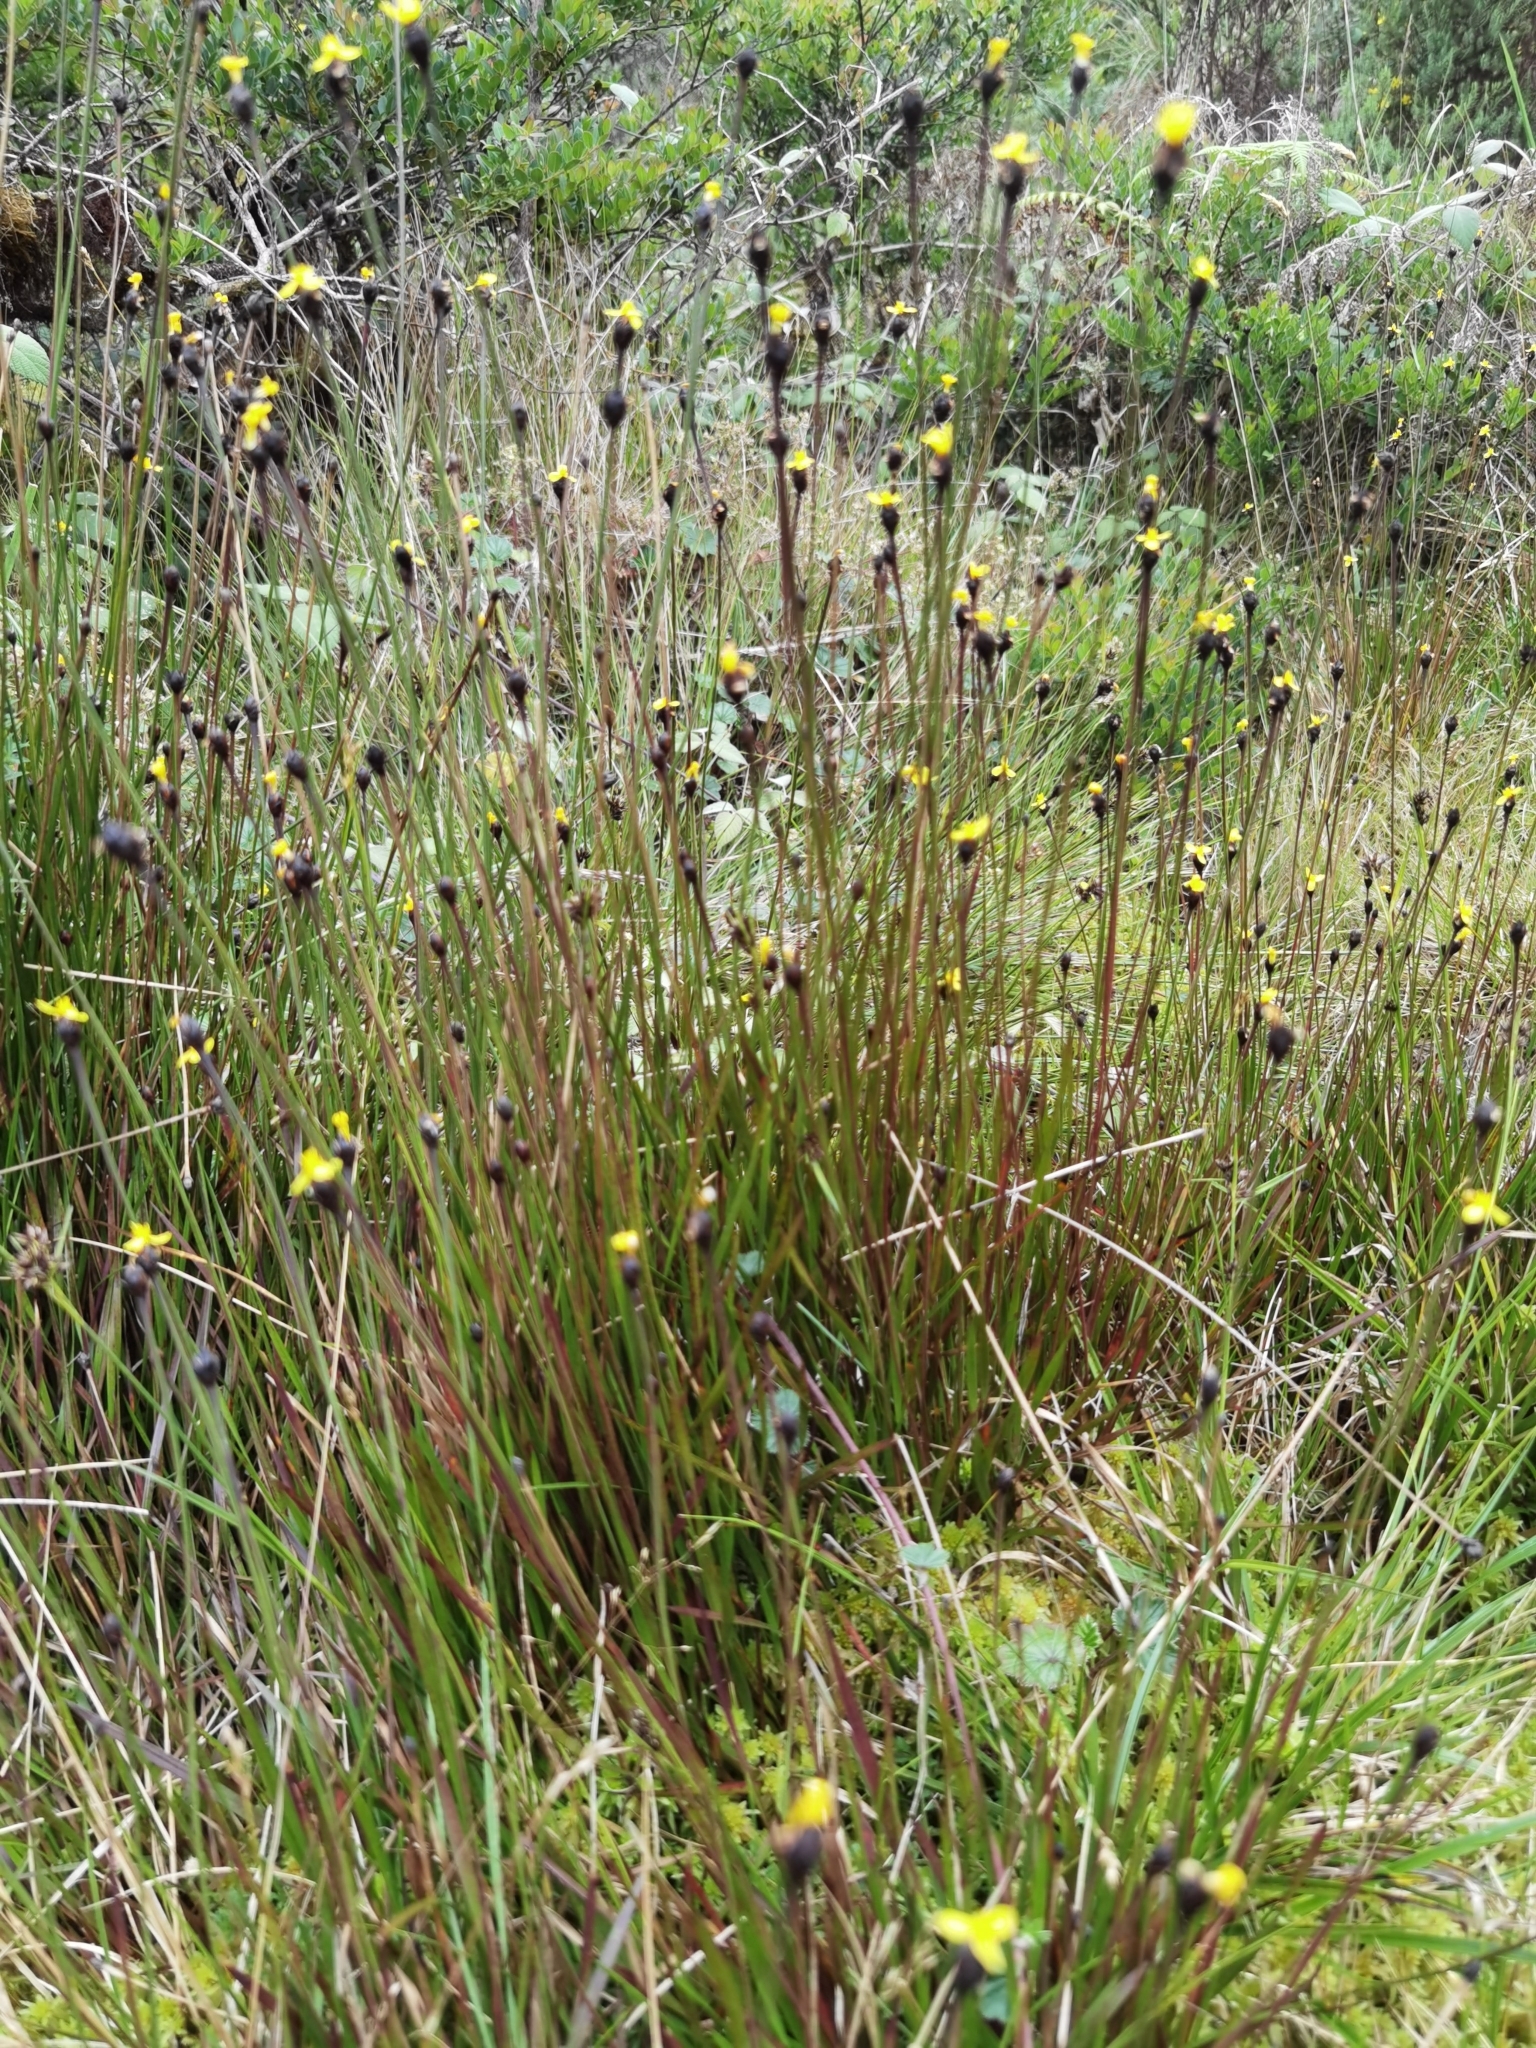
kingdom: Plantae
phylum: Tracheophyta
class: Liliopsida
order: Poales
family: Xyridaceae
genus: Xyris
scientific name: Xyris nigrescens
